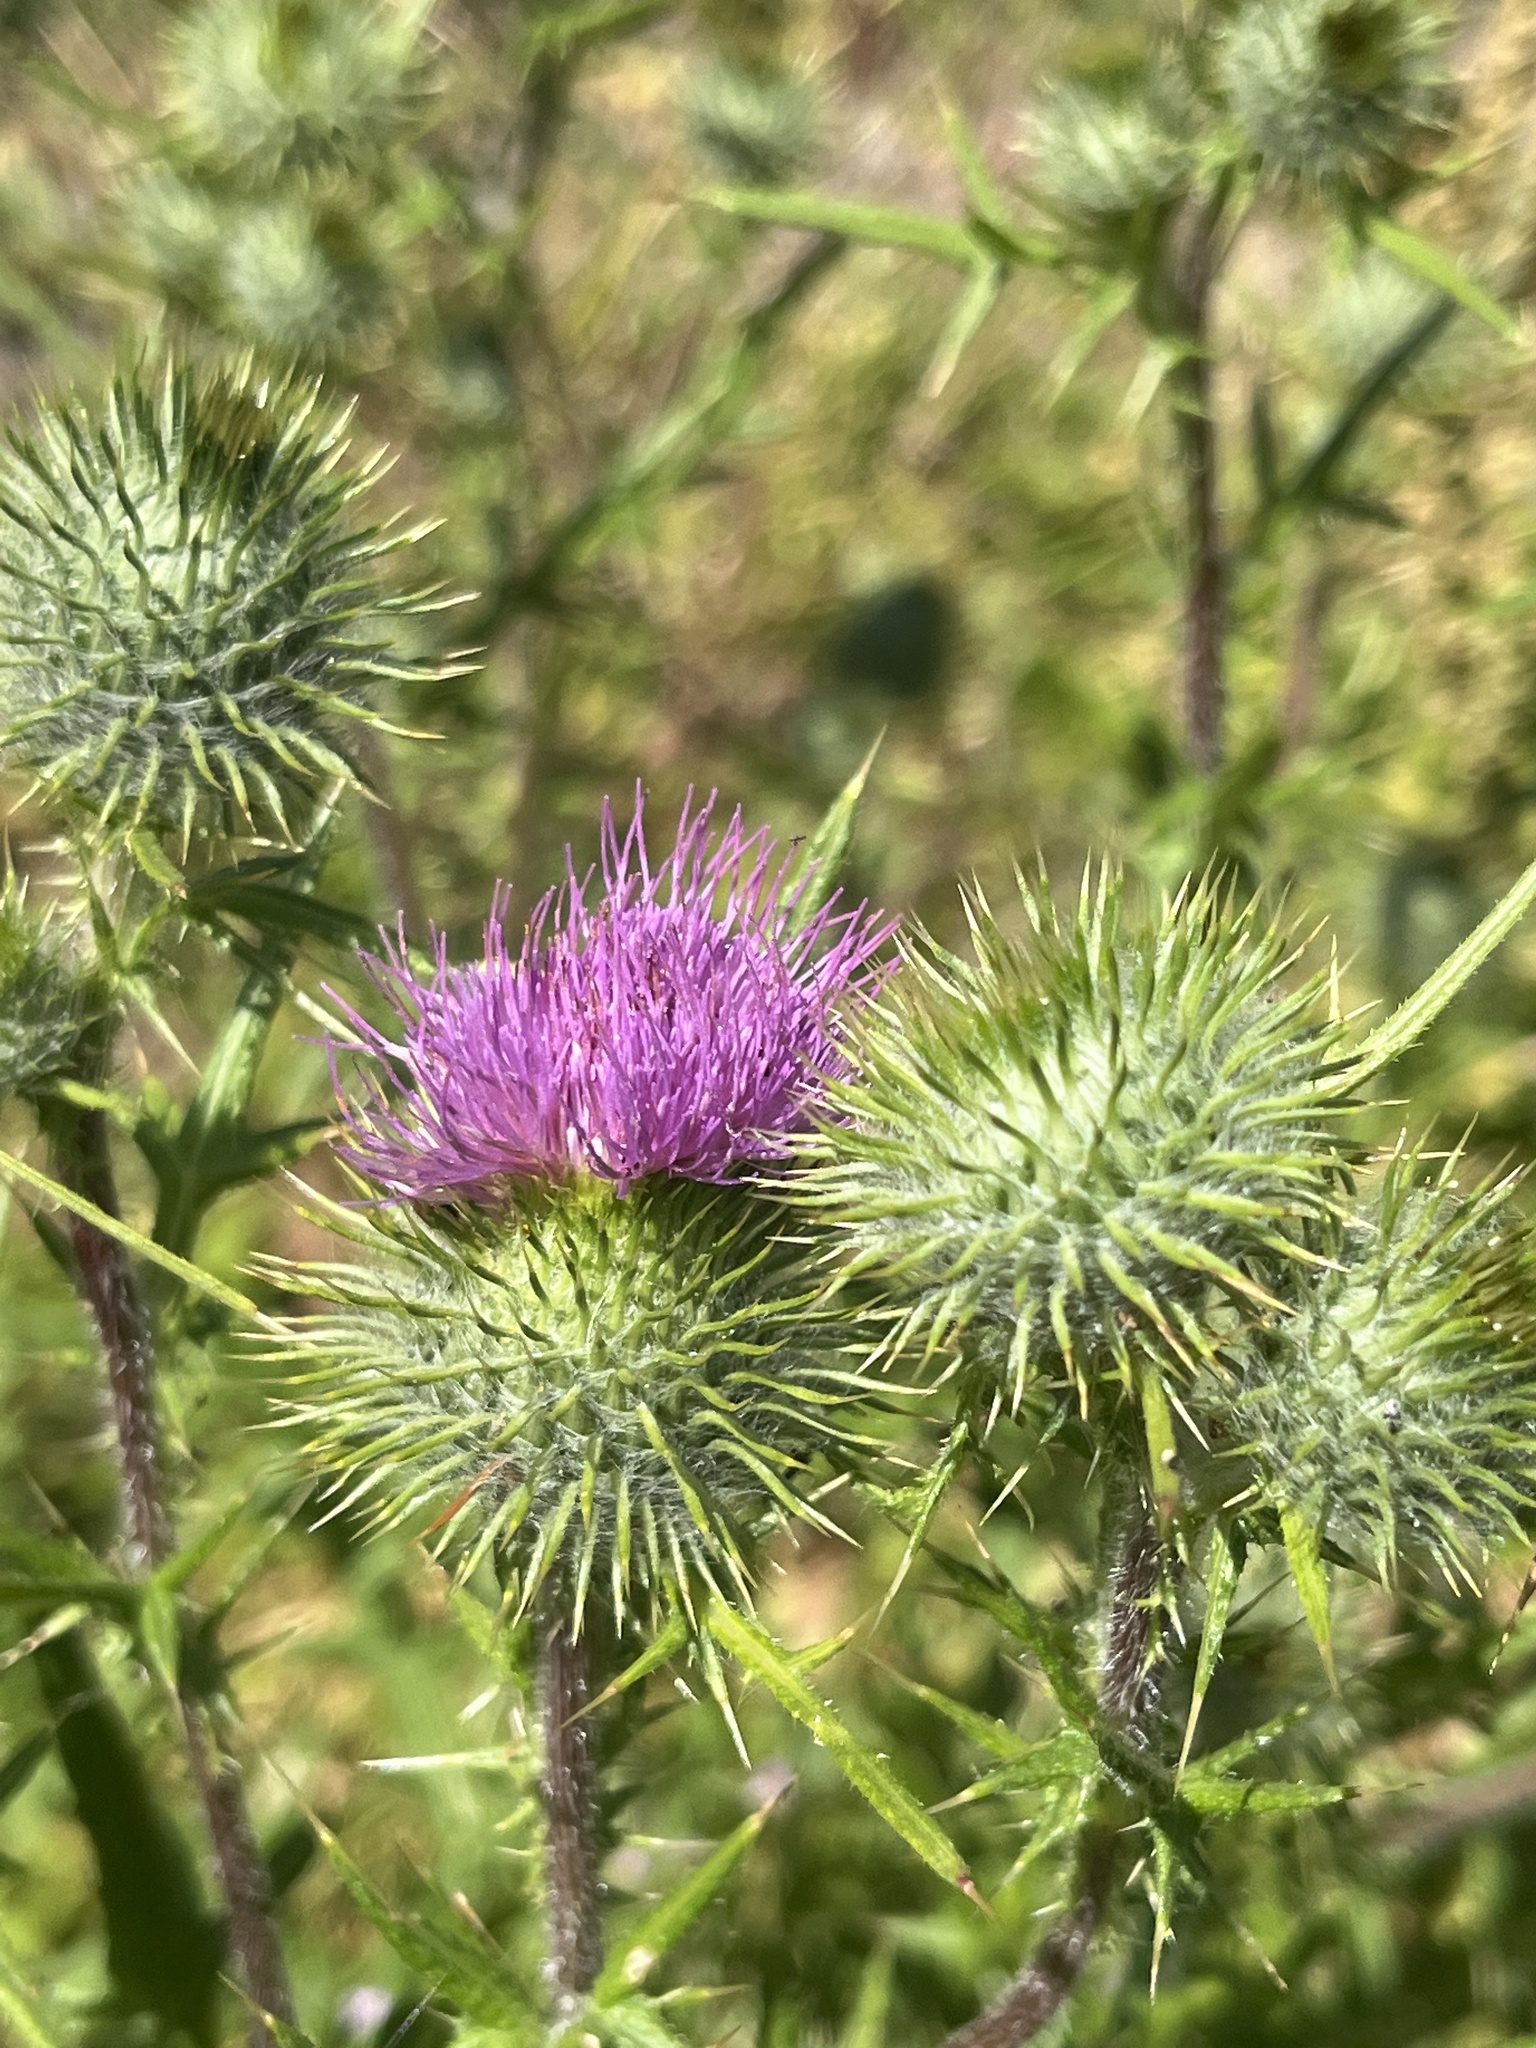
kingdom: Plantae
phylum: Tracheophyta
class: Magnoliopsida
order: Asterales
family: Asteraceae
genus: Cirsium
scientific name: Cirsium vulgare
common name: Bull thistle
